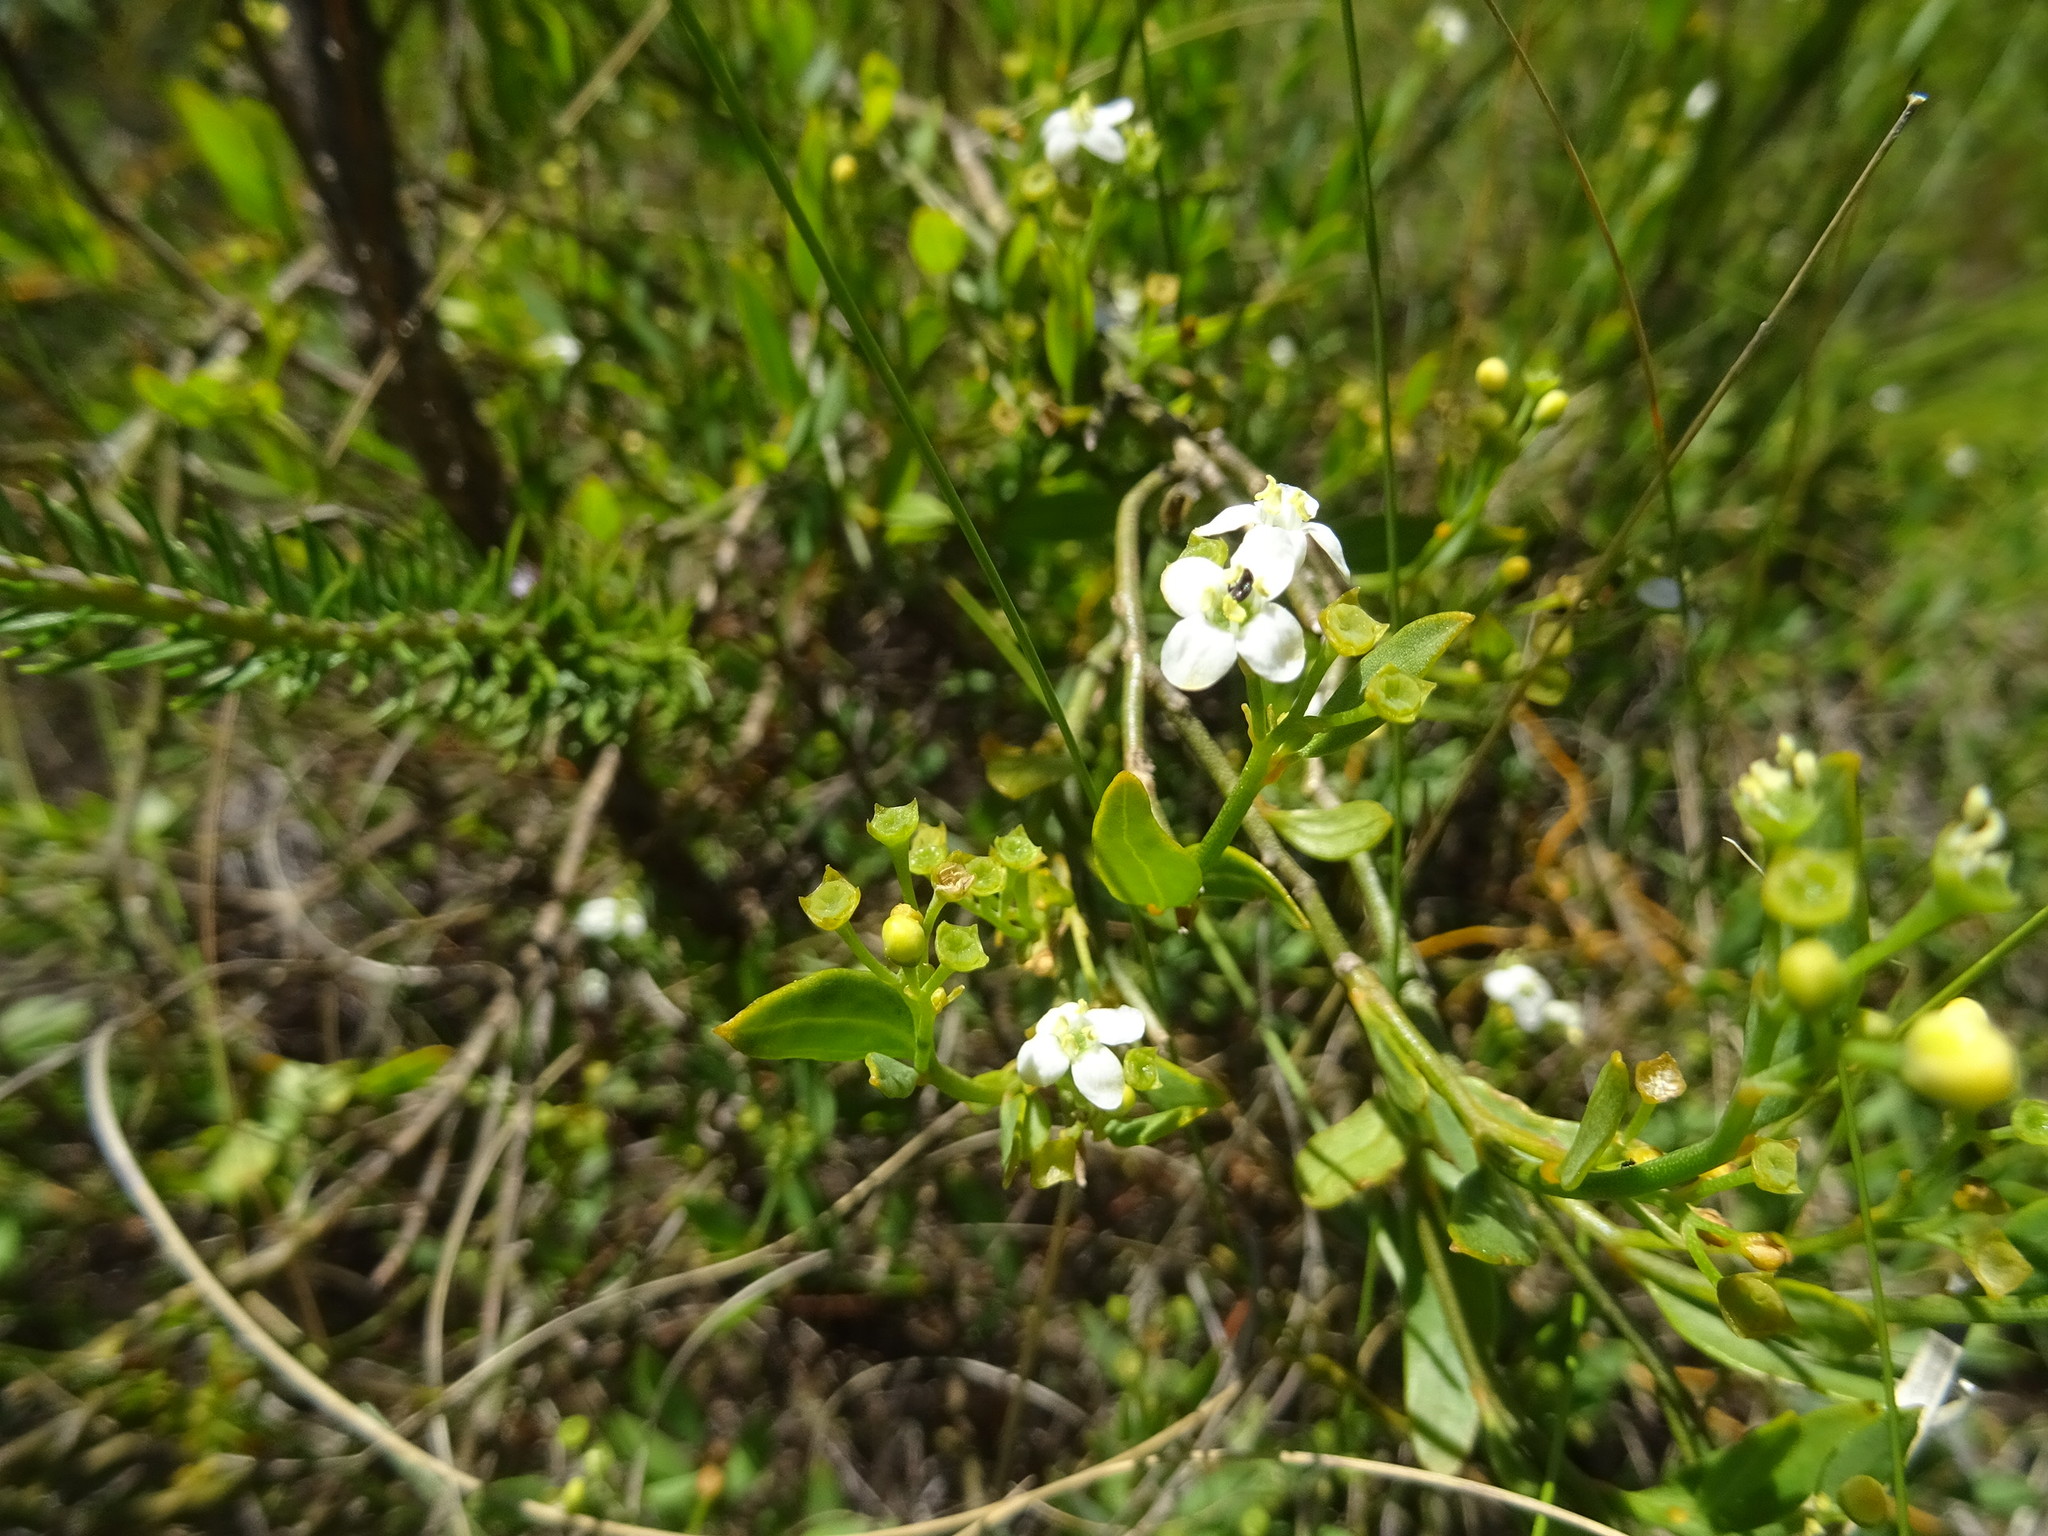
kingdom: Plantae
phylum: Tracheophyta
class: Magnoliopsida
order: Solanales
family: Montiniaceae
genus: Montinia
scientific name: Montinia caryophyllacea
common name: Wild clove-bush
